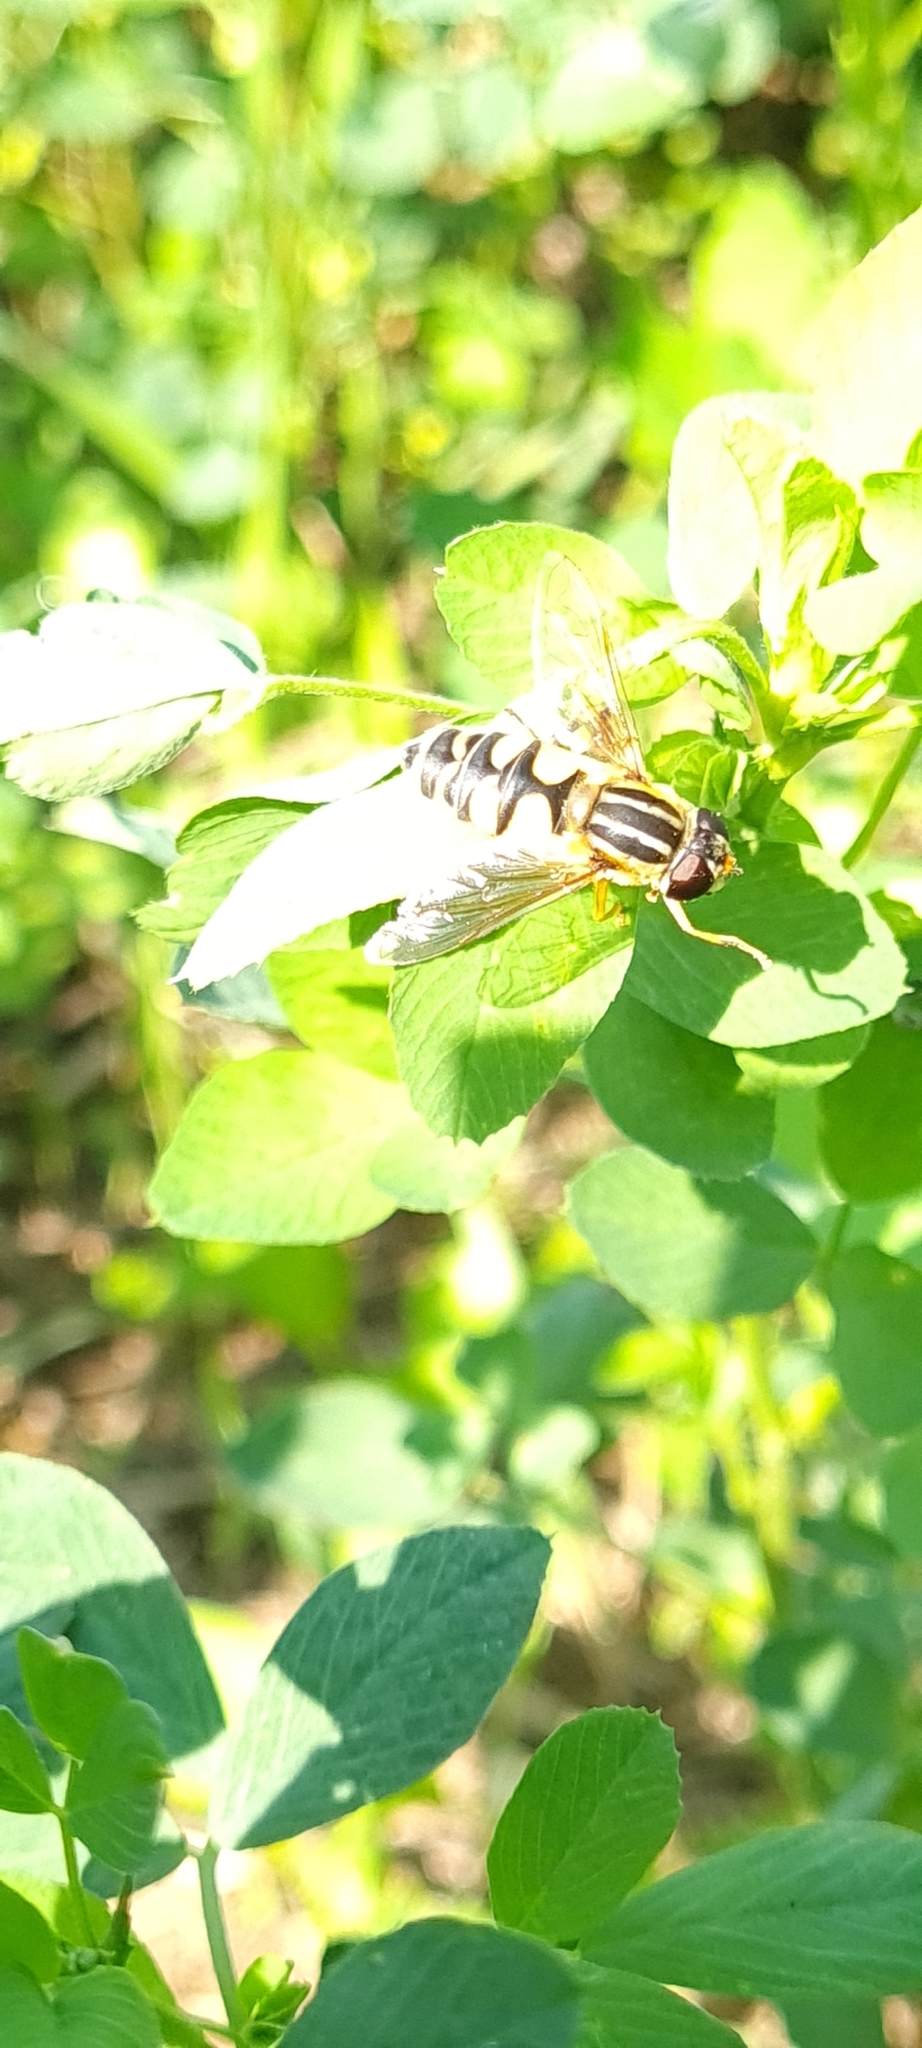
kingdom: Animalia
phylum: Arthropoda
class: Insecta
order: Diptera
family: Syrphidae
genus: Helophilus
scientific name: Helophilus trivittatus
